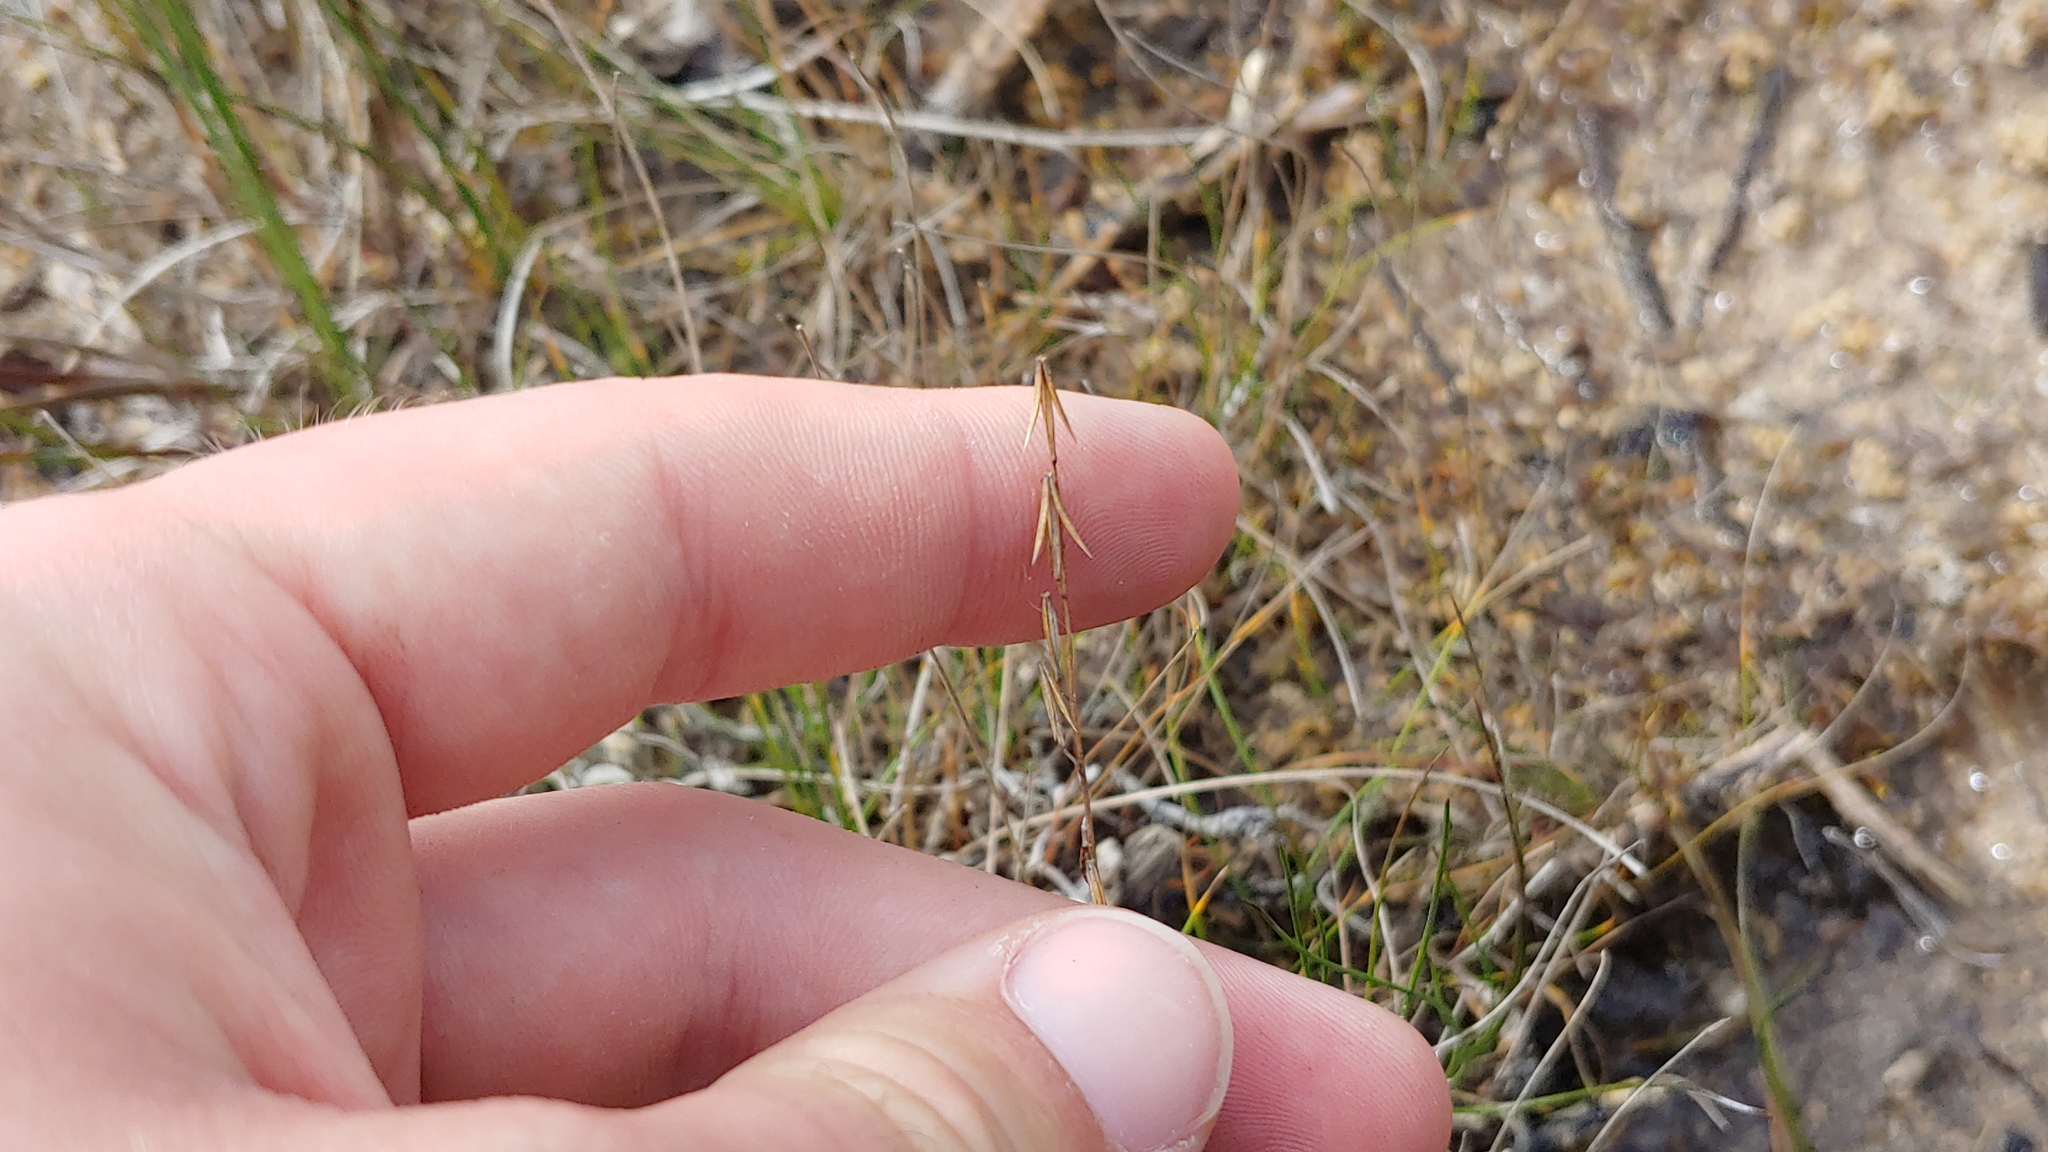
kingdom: Plantae
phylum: Tracheophyta
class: Liliopsida
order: Alismatales
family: Juncaginaceae
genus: Triglochin
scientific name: Triglochin palustris
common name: Marsh arrowgrass
